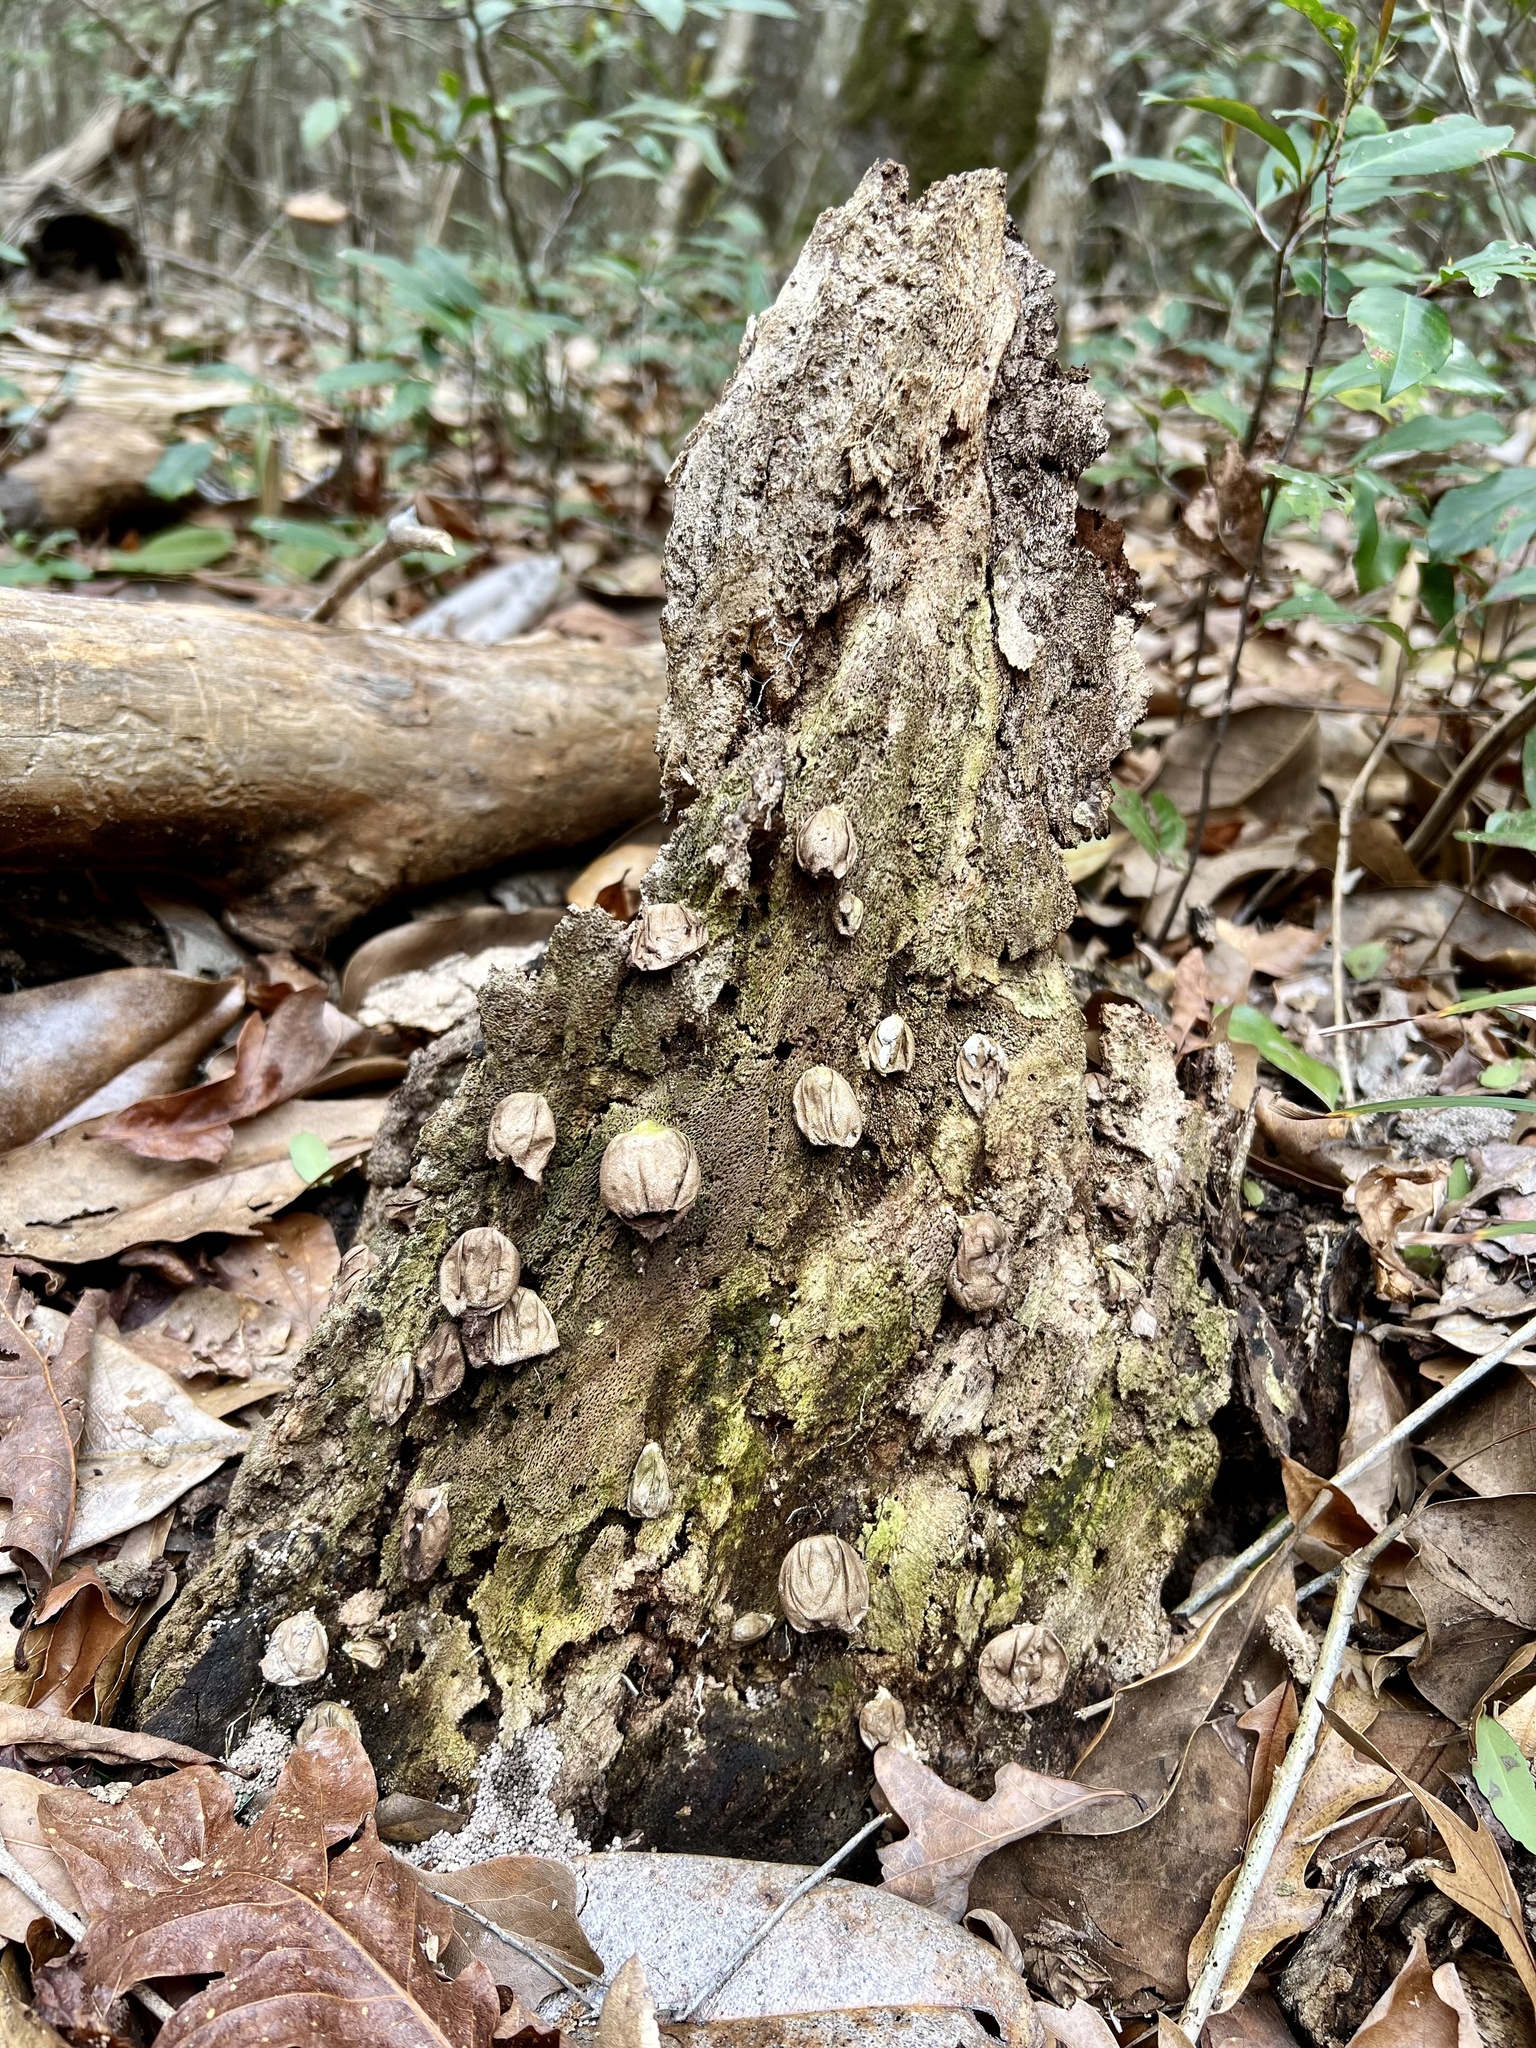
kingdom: Fungi
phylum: Basidiomycota
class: Agaricomycetes
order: Agaricales
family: Lycoperdaceae
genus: Apioperdon
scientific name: Apioperdon pyriforme
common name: Pear-shaped puffball
